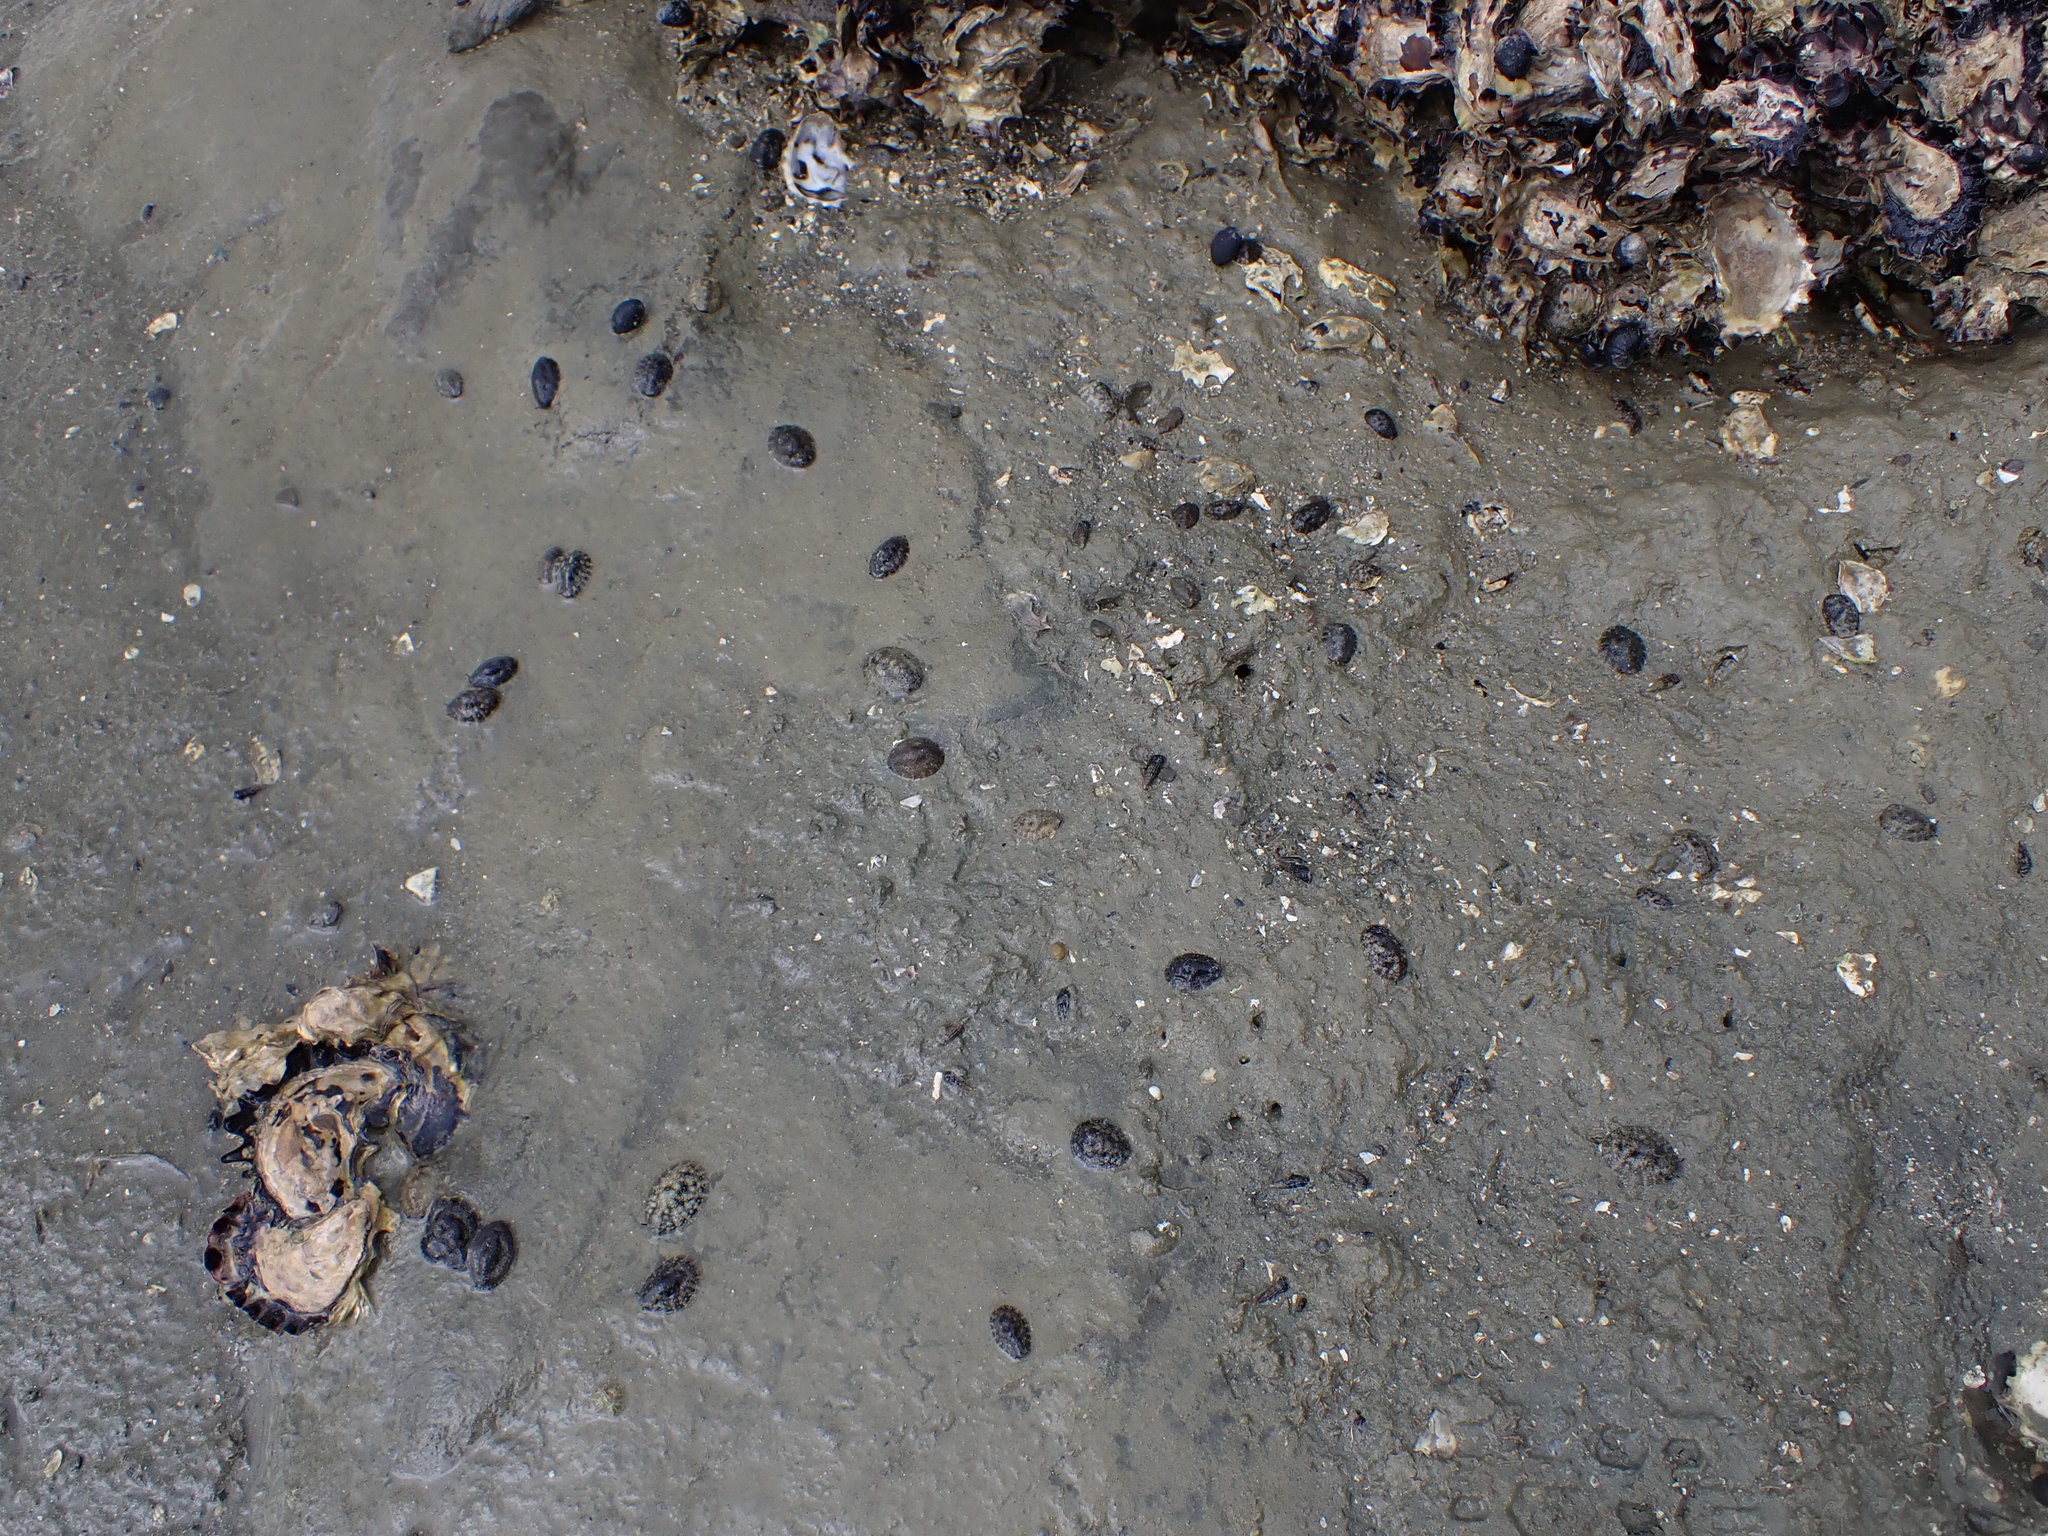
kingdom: Animalia
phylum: Mollusca
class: Gastropoda
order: Systellommatophora
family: Onchidiidae
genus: Onchidella
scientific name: Onchidella nigricans
